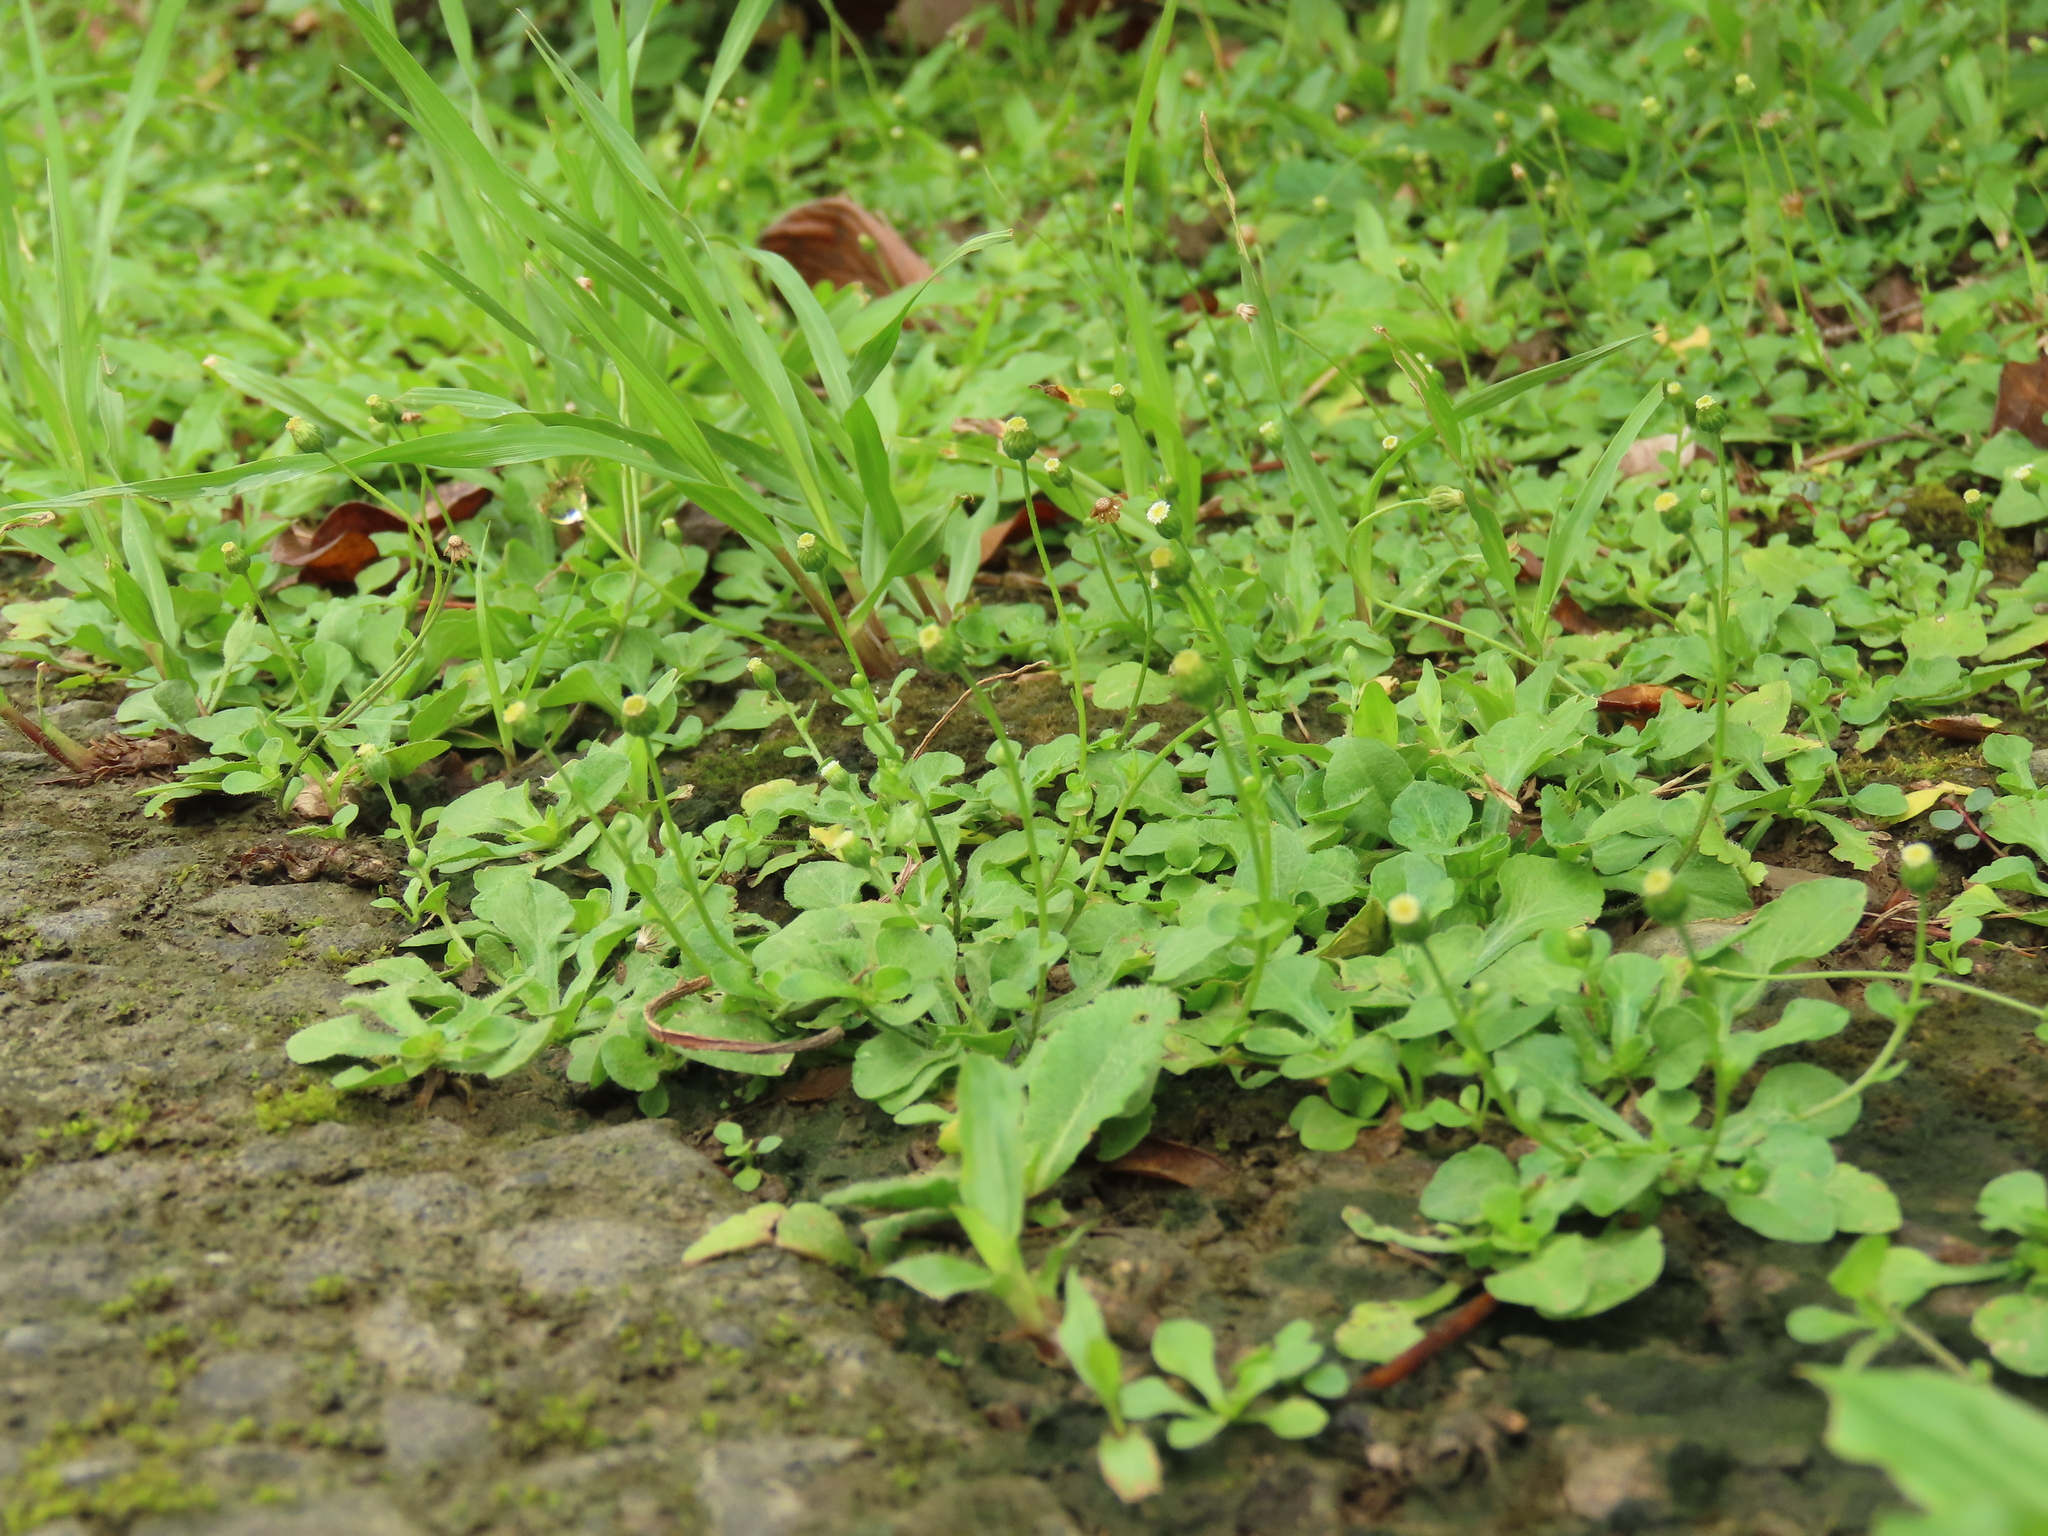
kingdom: Plantae
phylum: Tracheophyta
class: Magnoliopsida
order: Asterales
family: Asteraceae
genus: Erigeron
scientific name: Erigeron bellioides
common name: Bellorita
